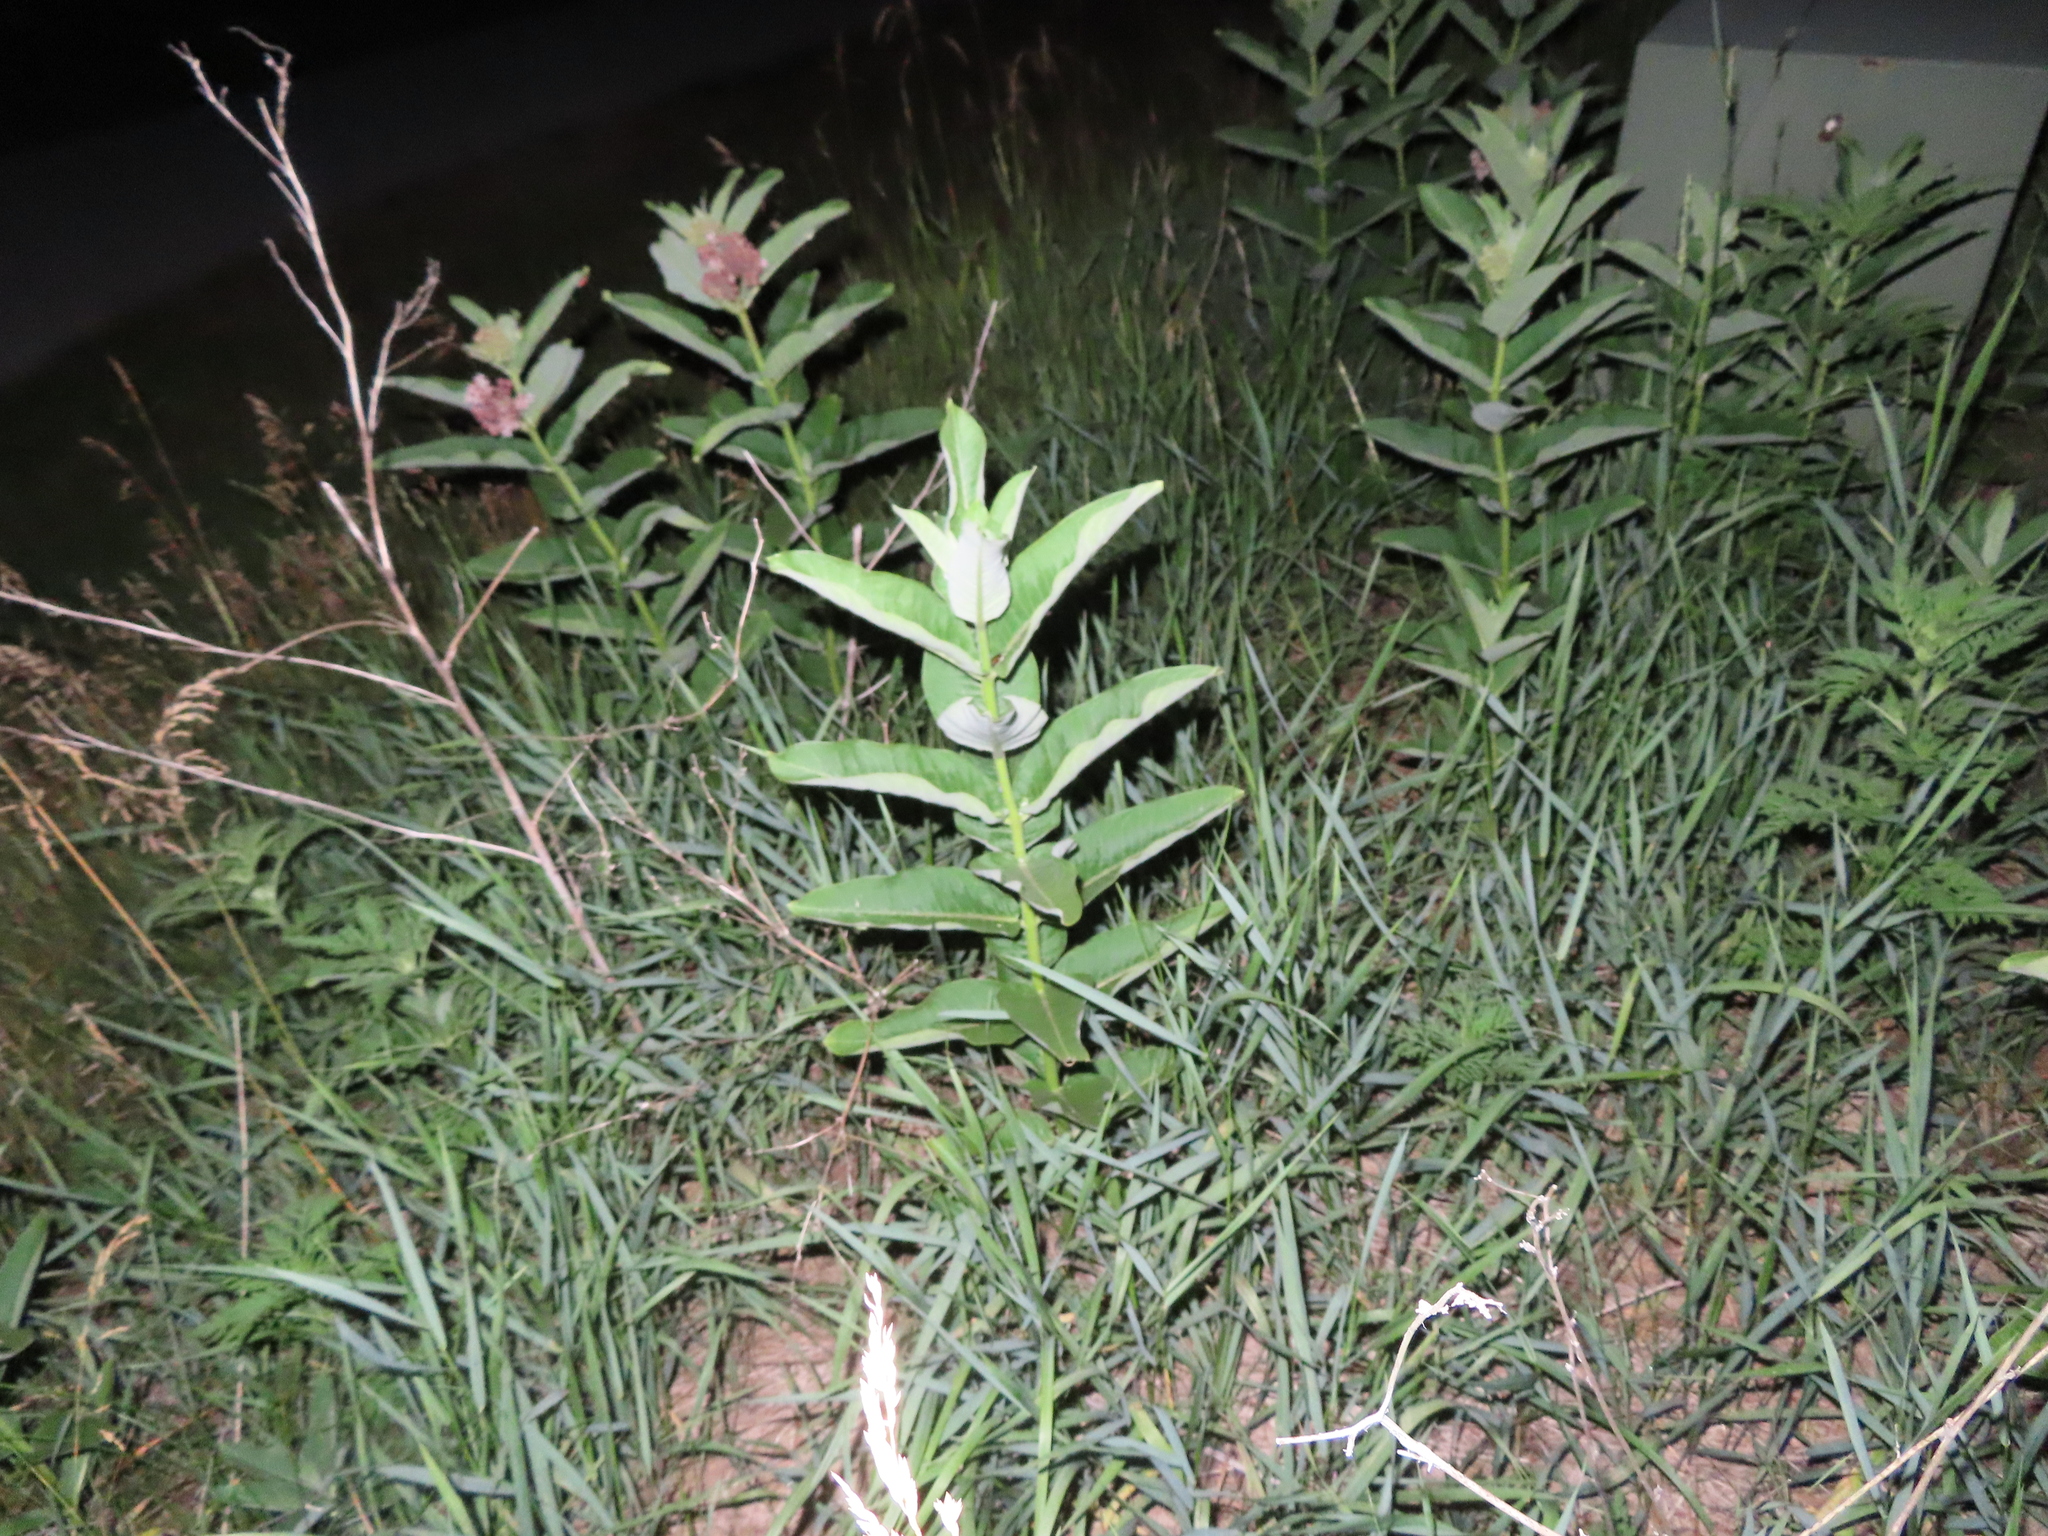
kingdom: Plantae
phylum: Tracheophyta
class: Magnoliopsida
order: Gentianales
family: Apocynaceae
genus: Asclepias
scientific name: Asclepias syriaca
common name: Common milkweed
